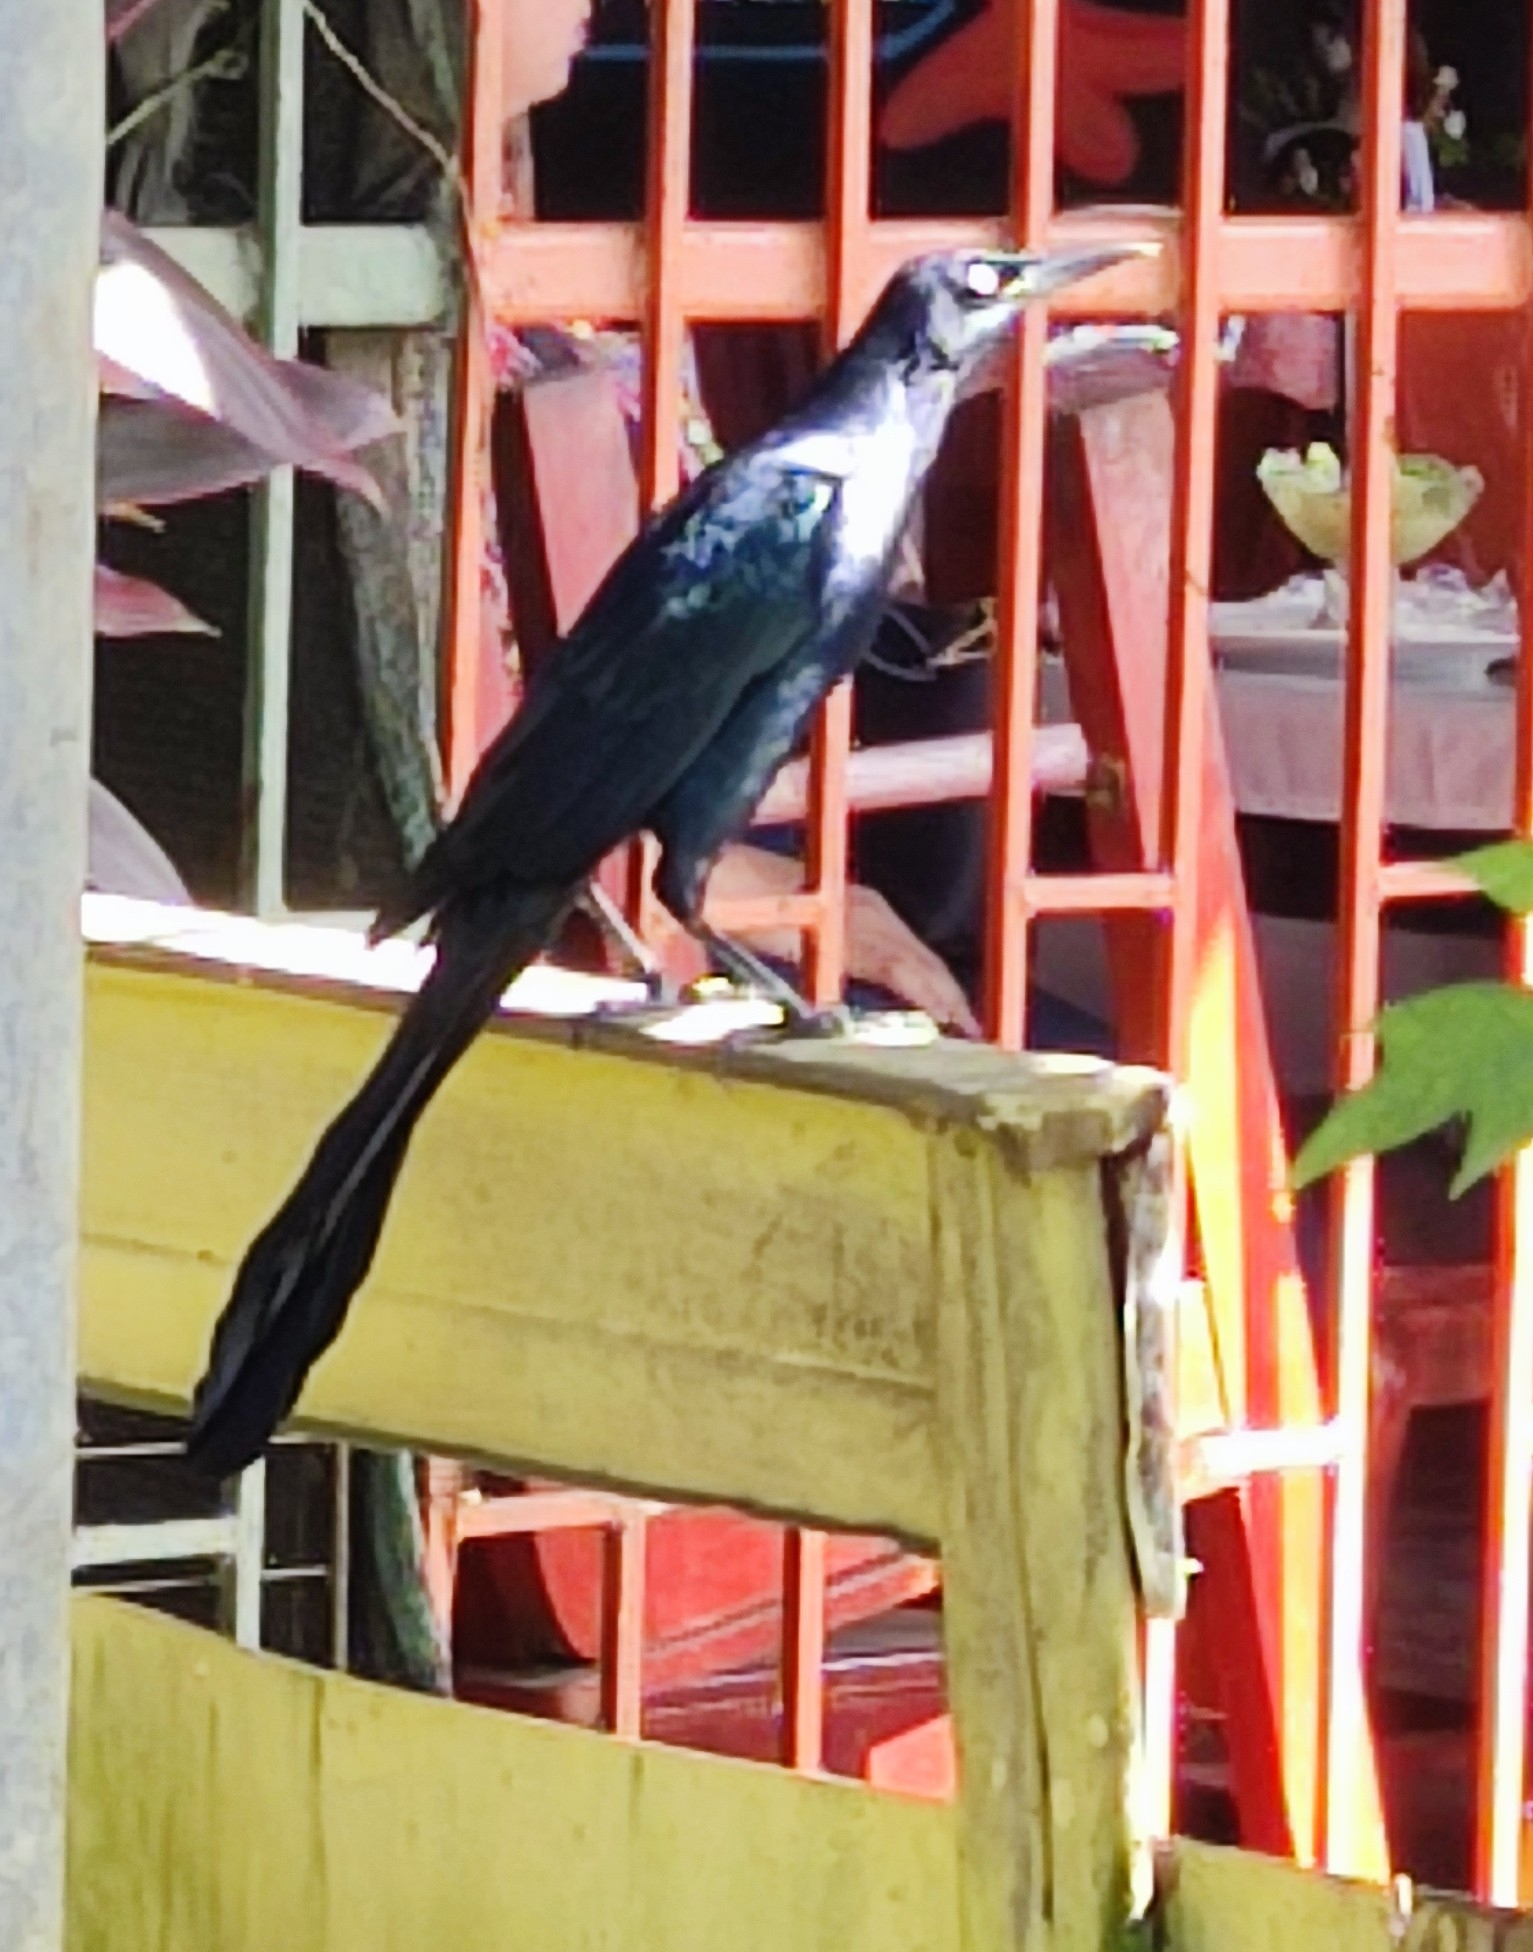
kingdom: Animalia
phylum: Chordata
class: Aves
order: Passeriformes
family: Icteridae
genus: Quiscalus
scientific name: Quiscalus mexicanus
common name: Great-tailed grackle
